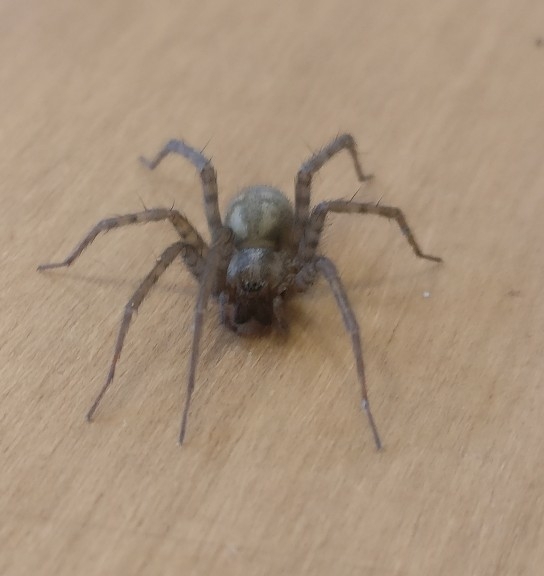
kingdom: Animalia
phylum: Arthropoda
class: Arachnida
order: Araneae
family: Agelenidae
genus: Tegenaria
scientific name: Tegenaria domestica
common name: Barn funnel weaver
